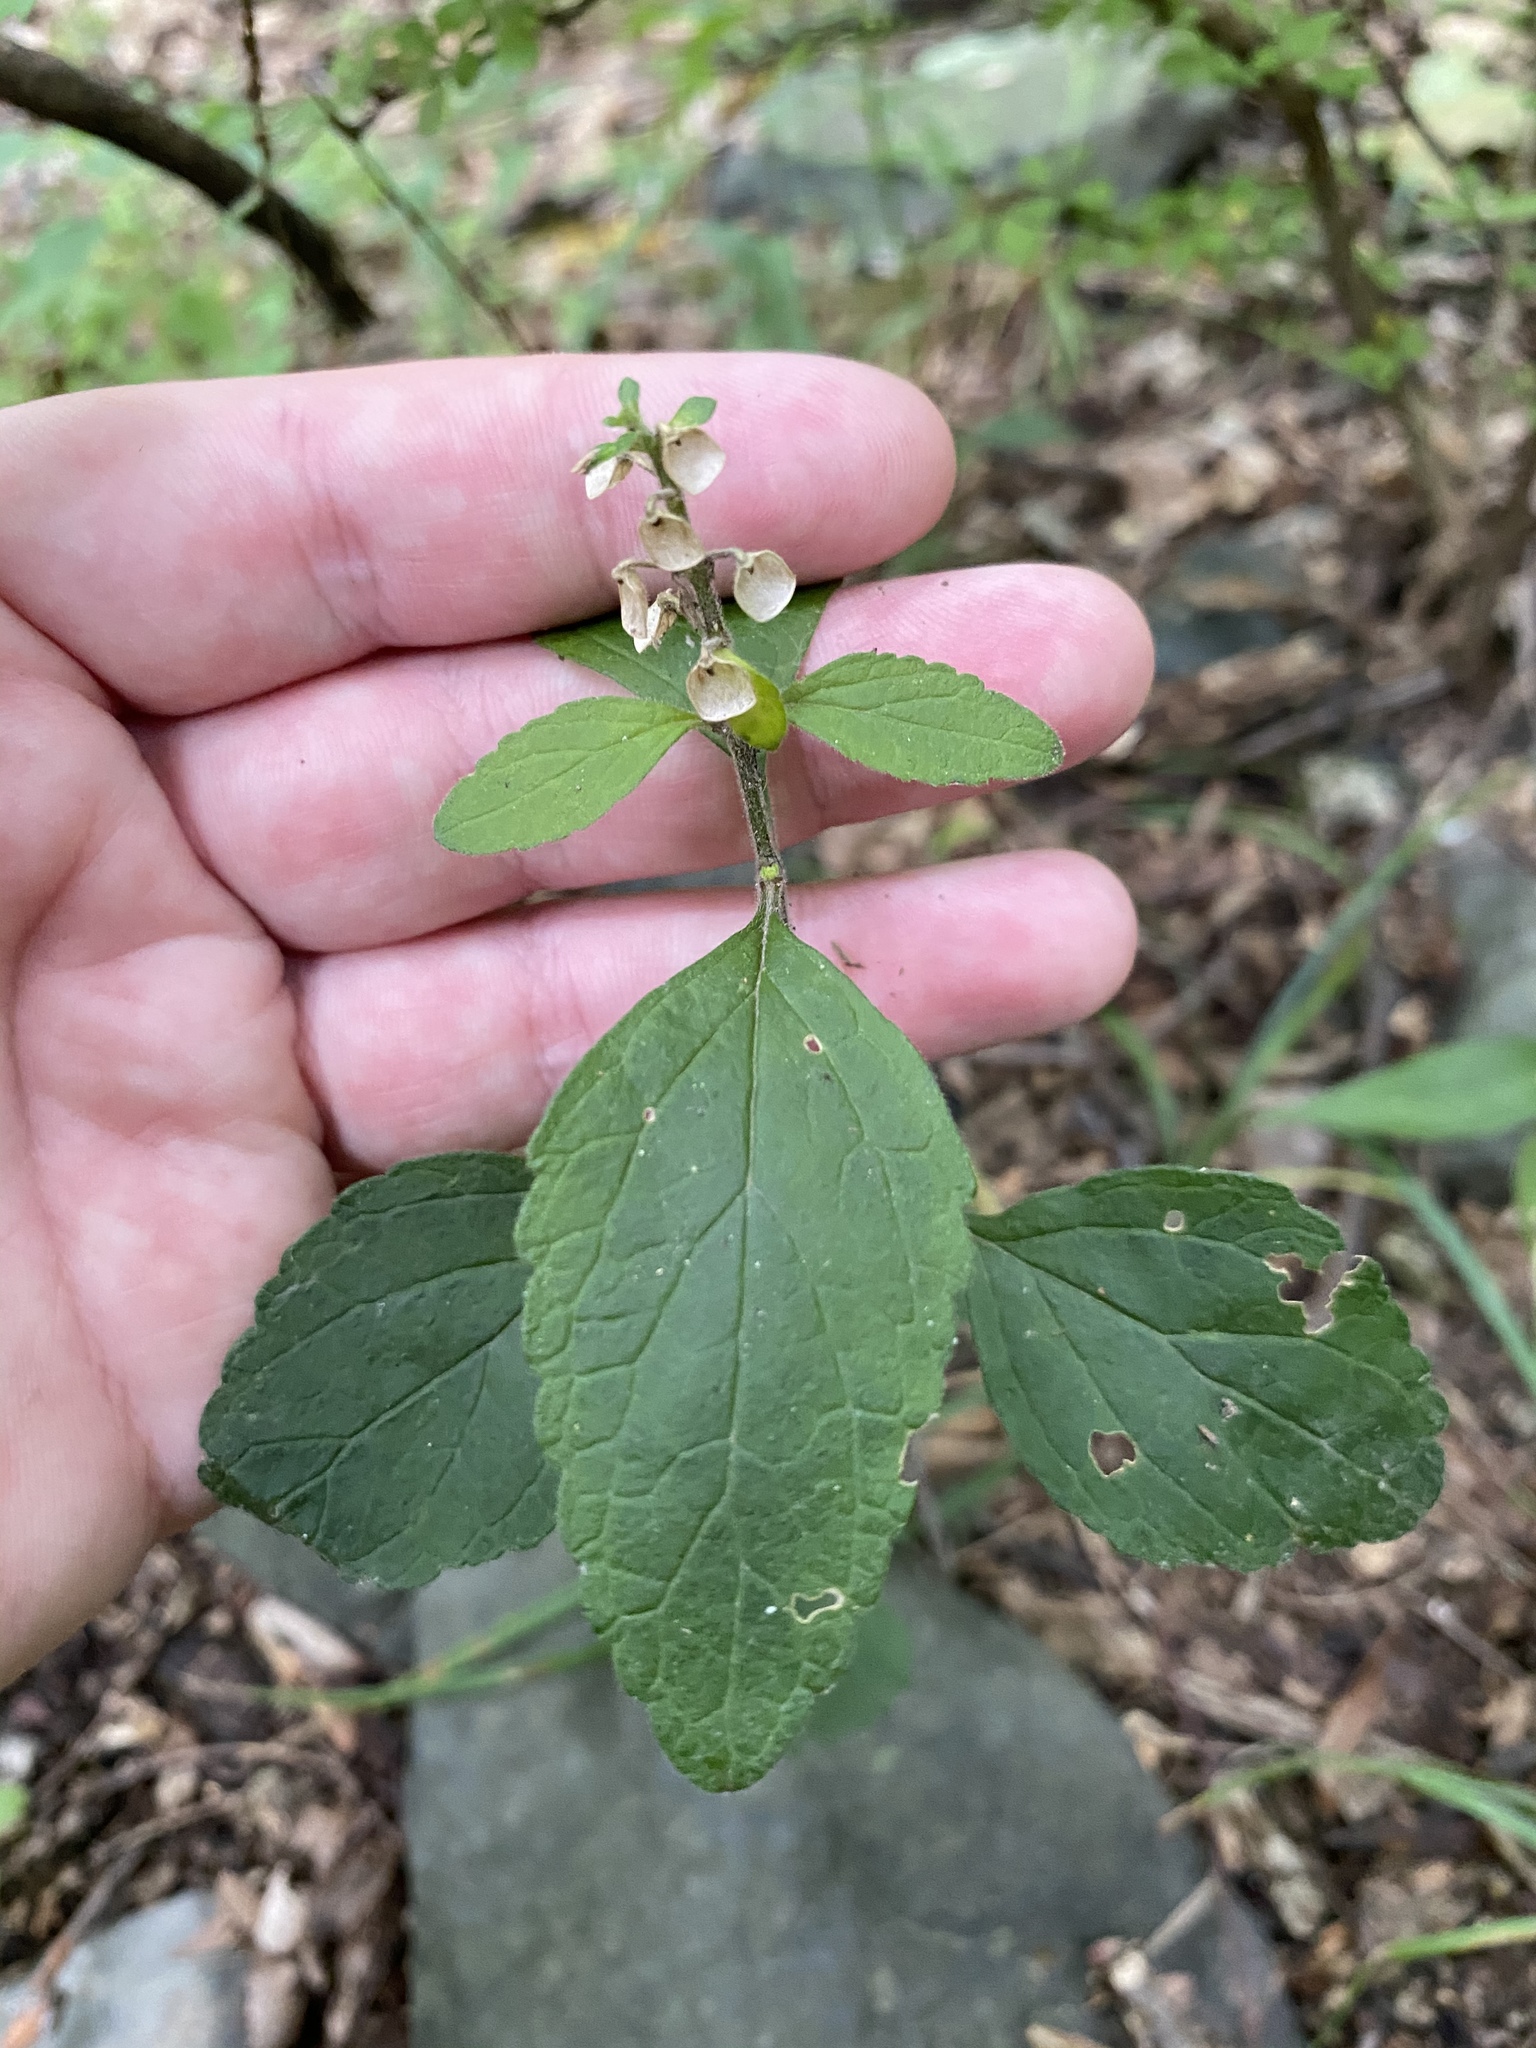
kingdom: Plantae
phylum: Tracheophyta
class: Magnoliopsida
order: Lamiales
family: Lamiaceae
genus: Scutellaria
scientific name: Scutellaria elliptica
